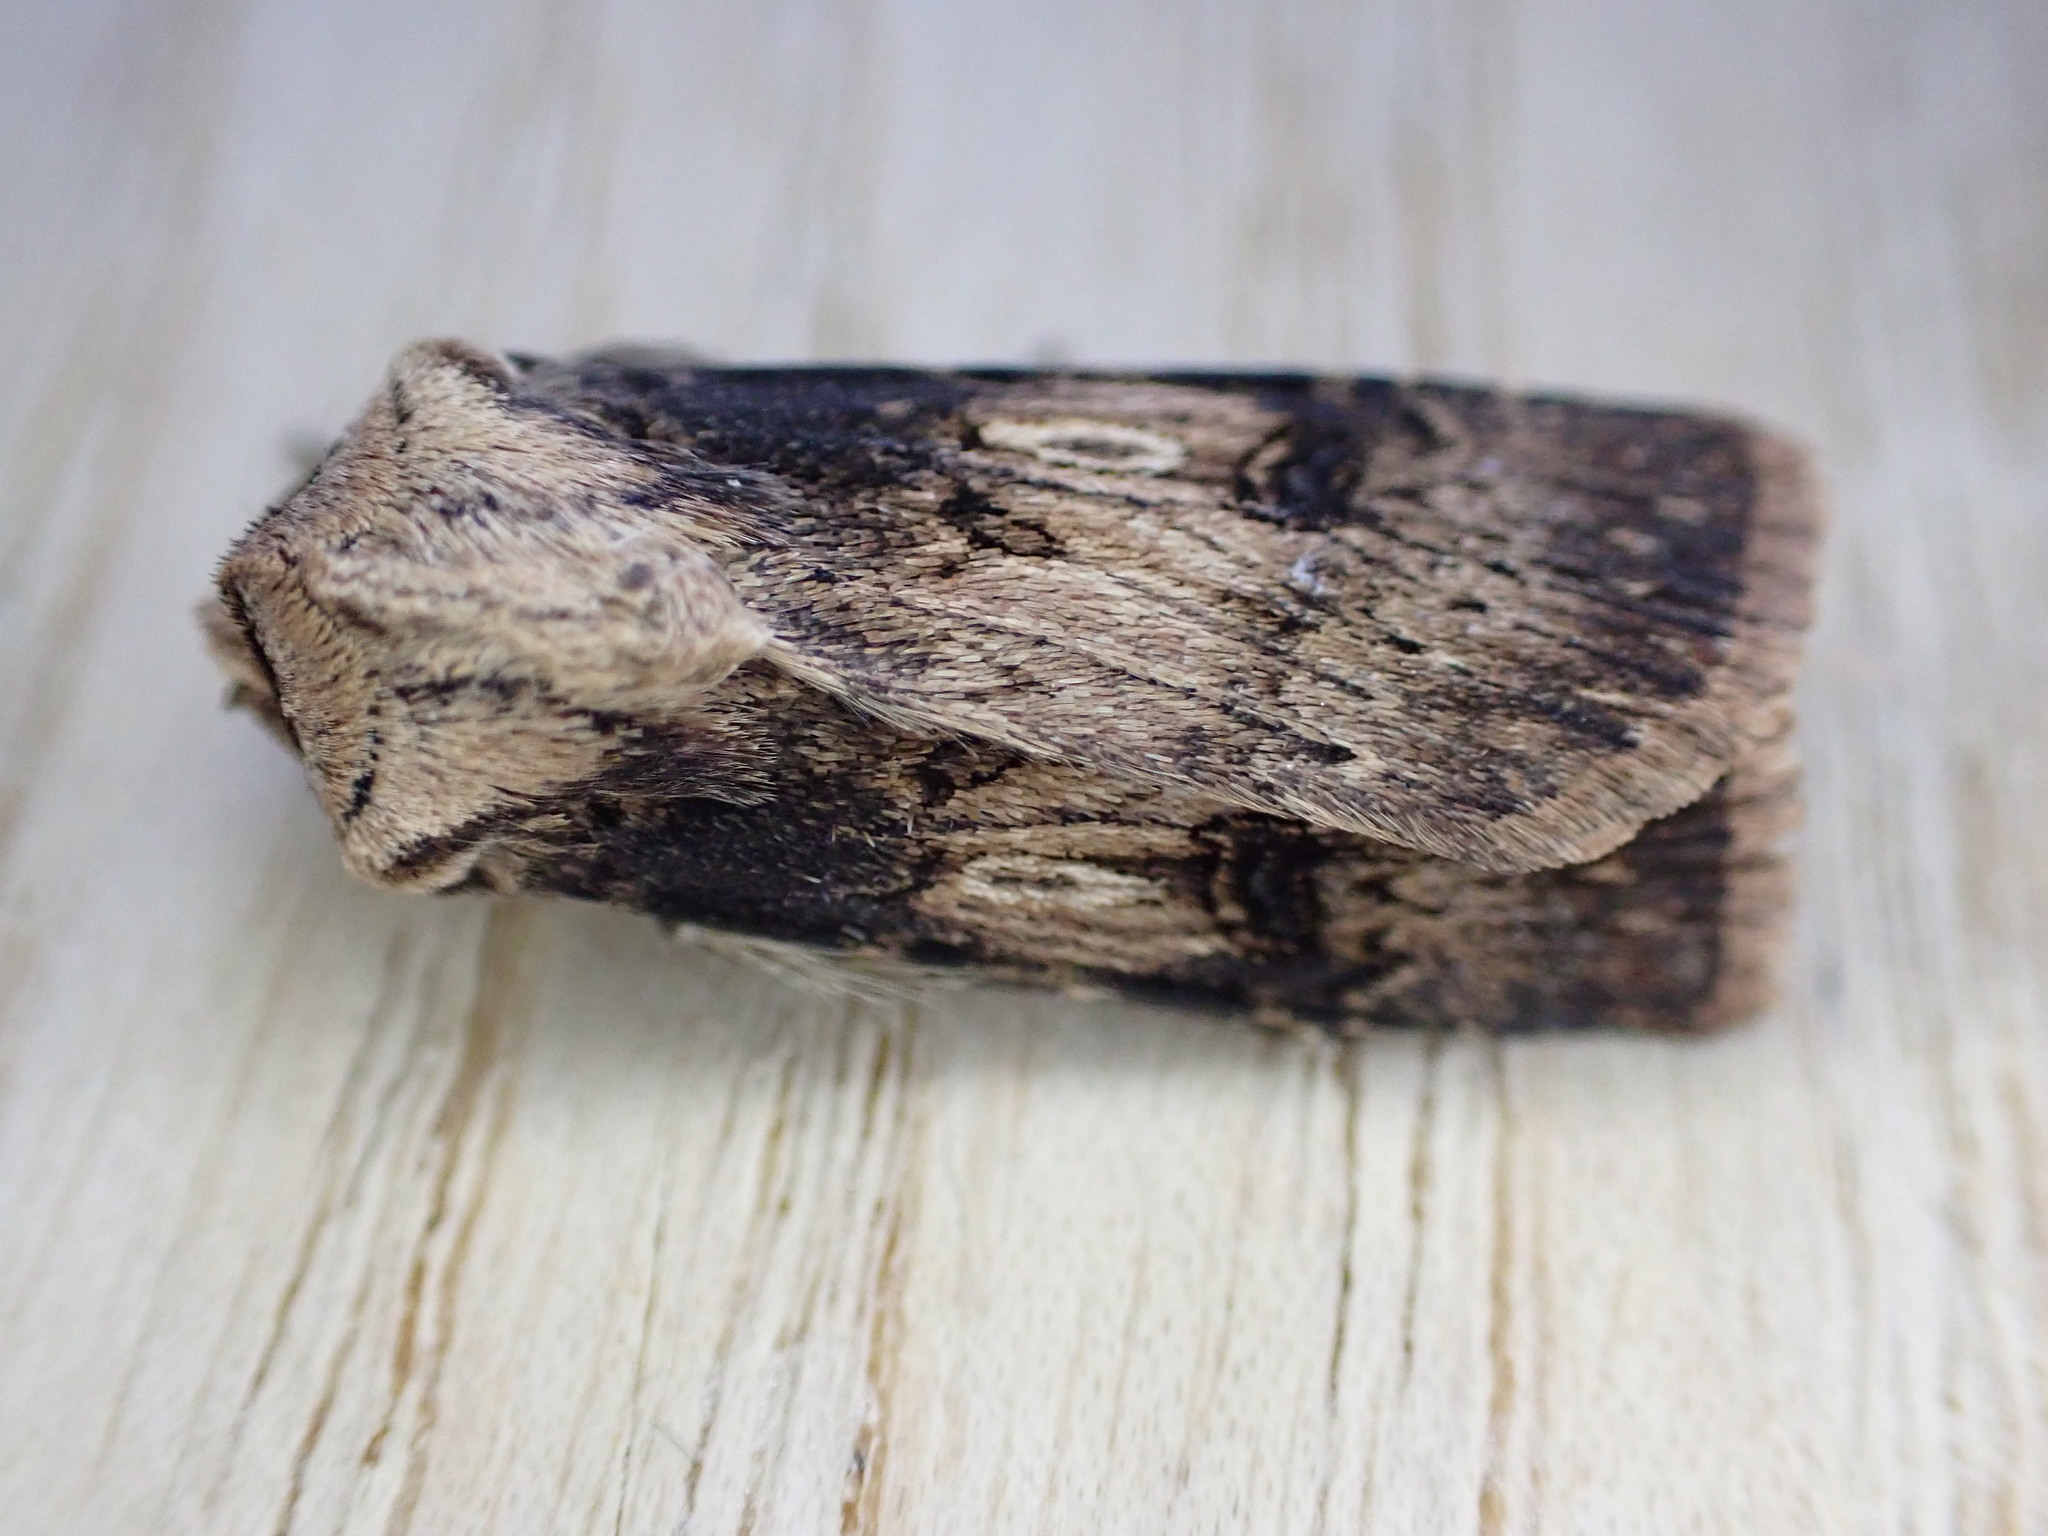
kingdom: Animalia
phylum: Arthropoda
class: Insecta
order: Lepidoptera
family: Noctuidae
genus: Agrotis
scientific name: Agrotis puta
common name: Shuttle-shaped dart
